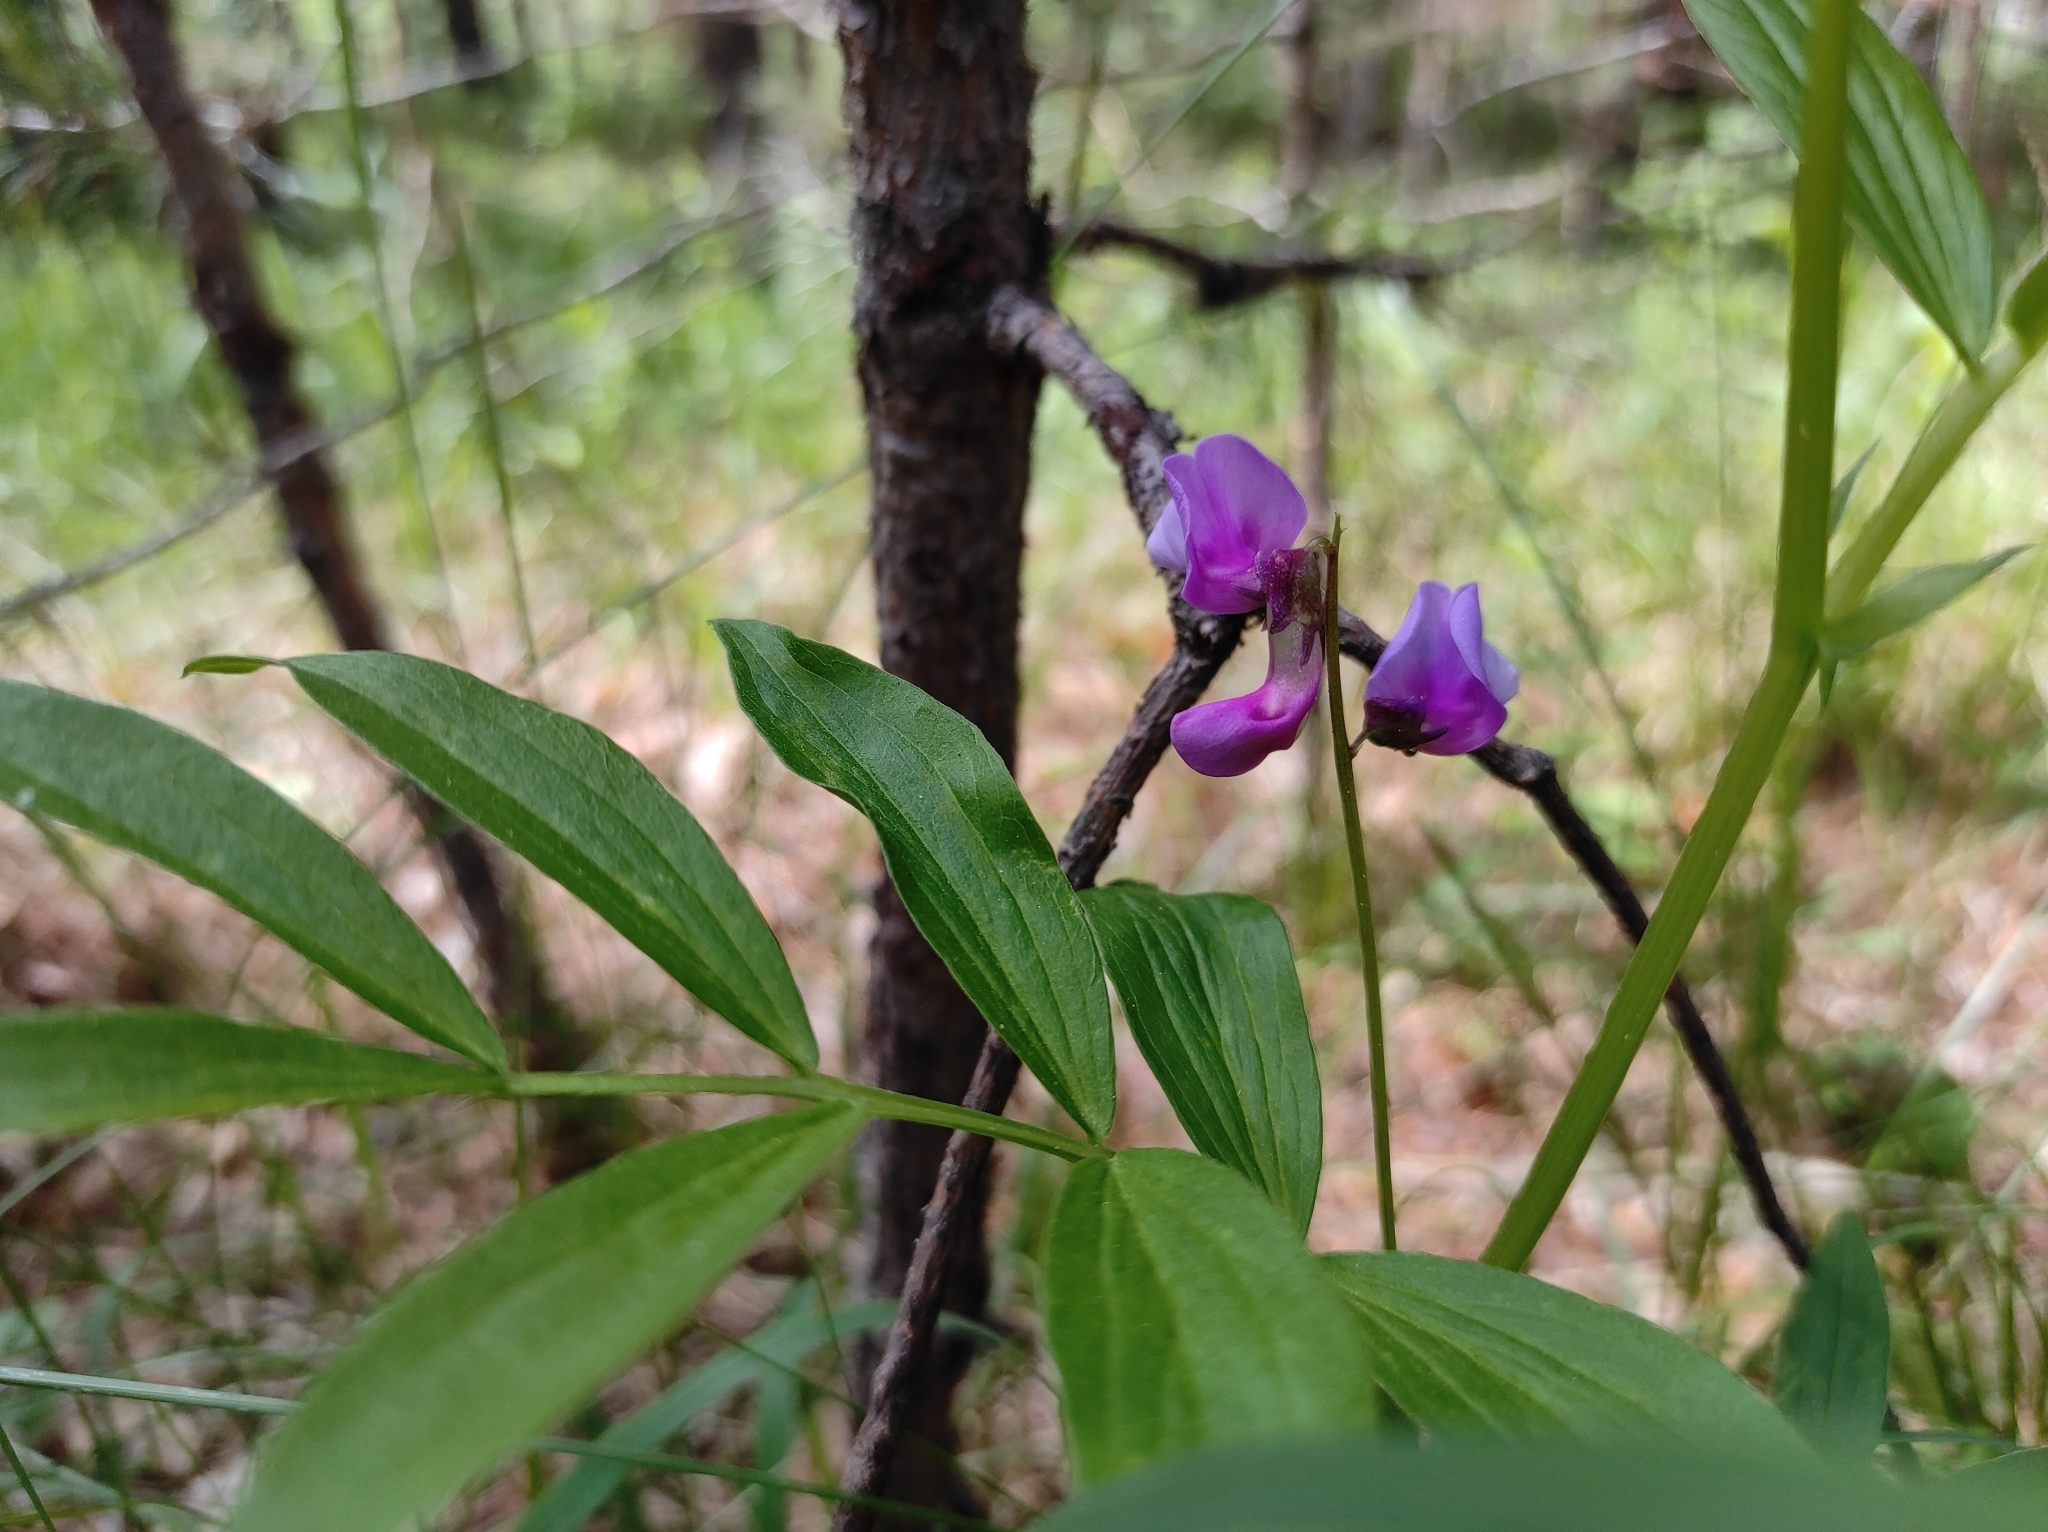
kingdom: Plantae
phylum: Tracheophyta
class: Magnoliopsida
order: Fabales
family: Fabaceae
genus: Lathyrus
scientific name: Lathyrus vernus
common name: Spring pea
